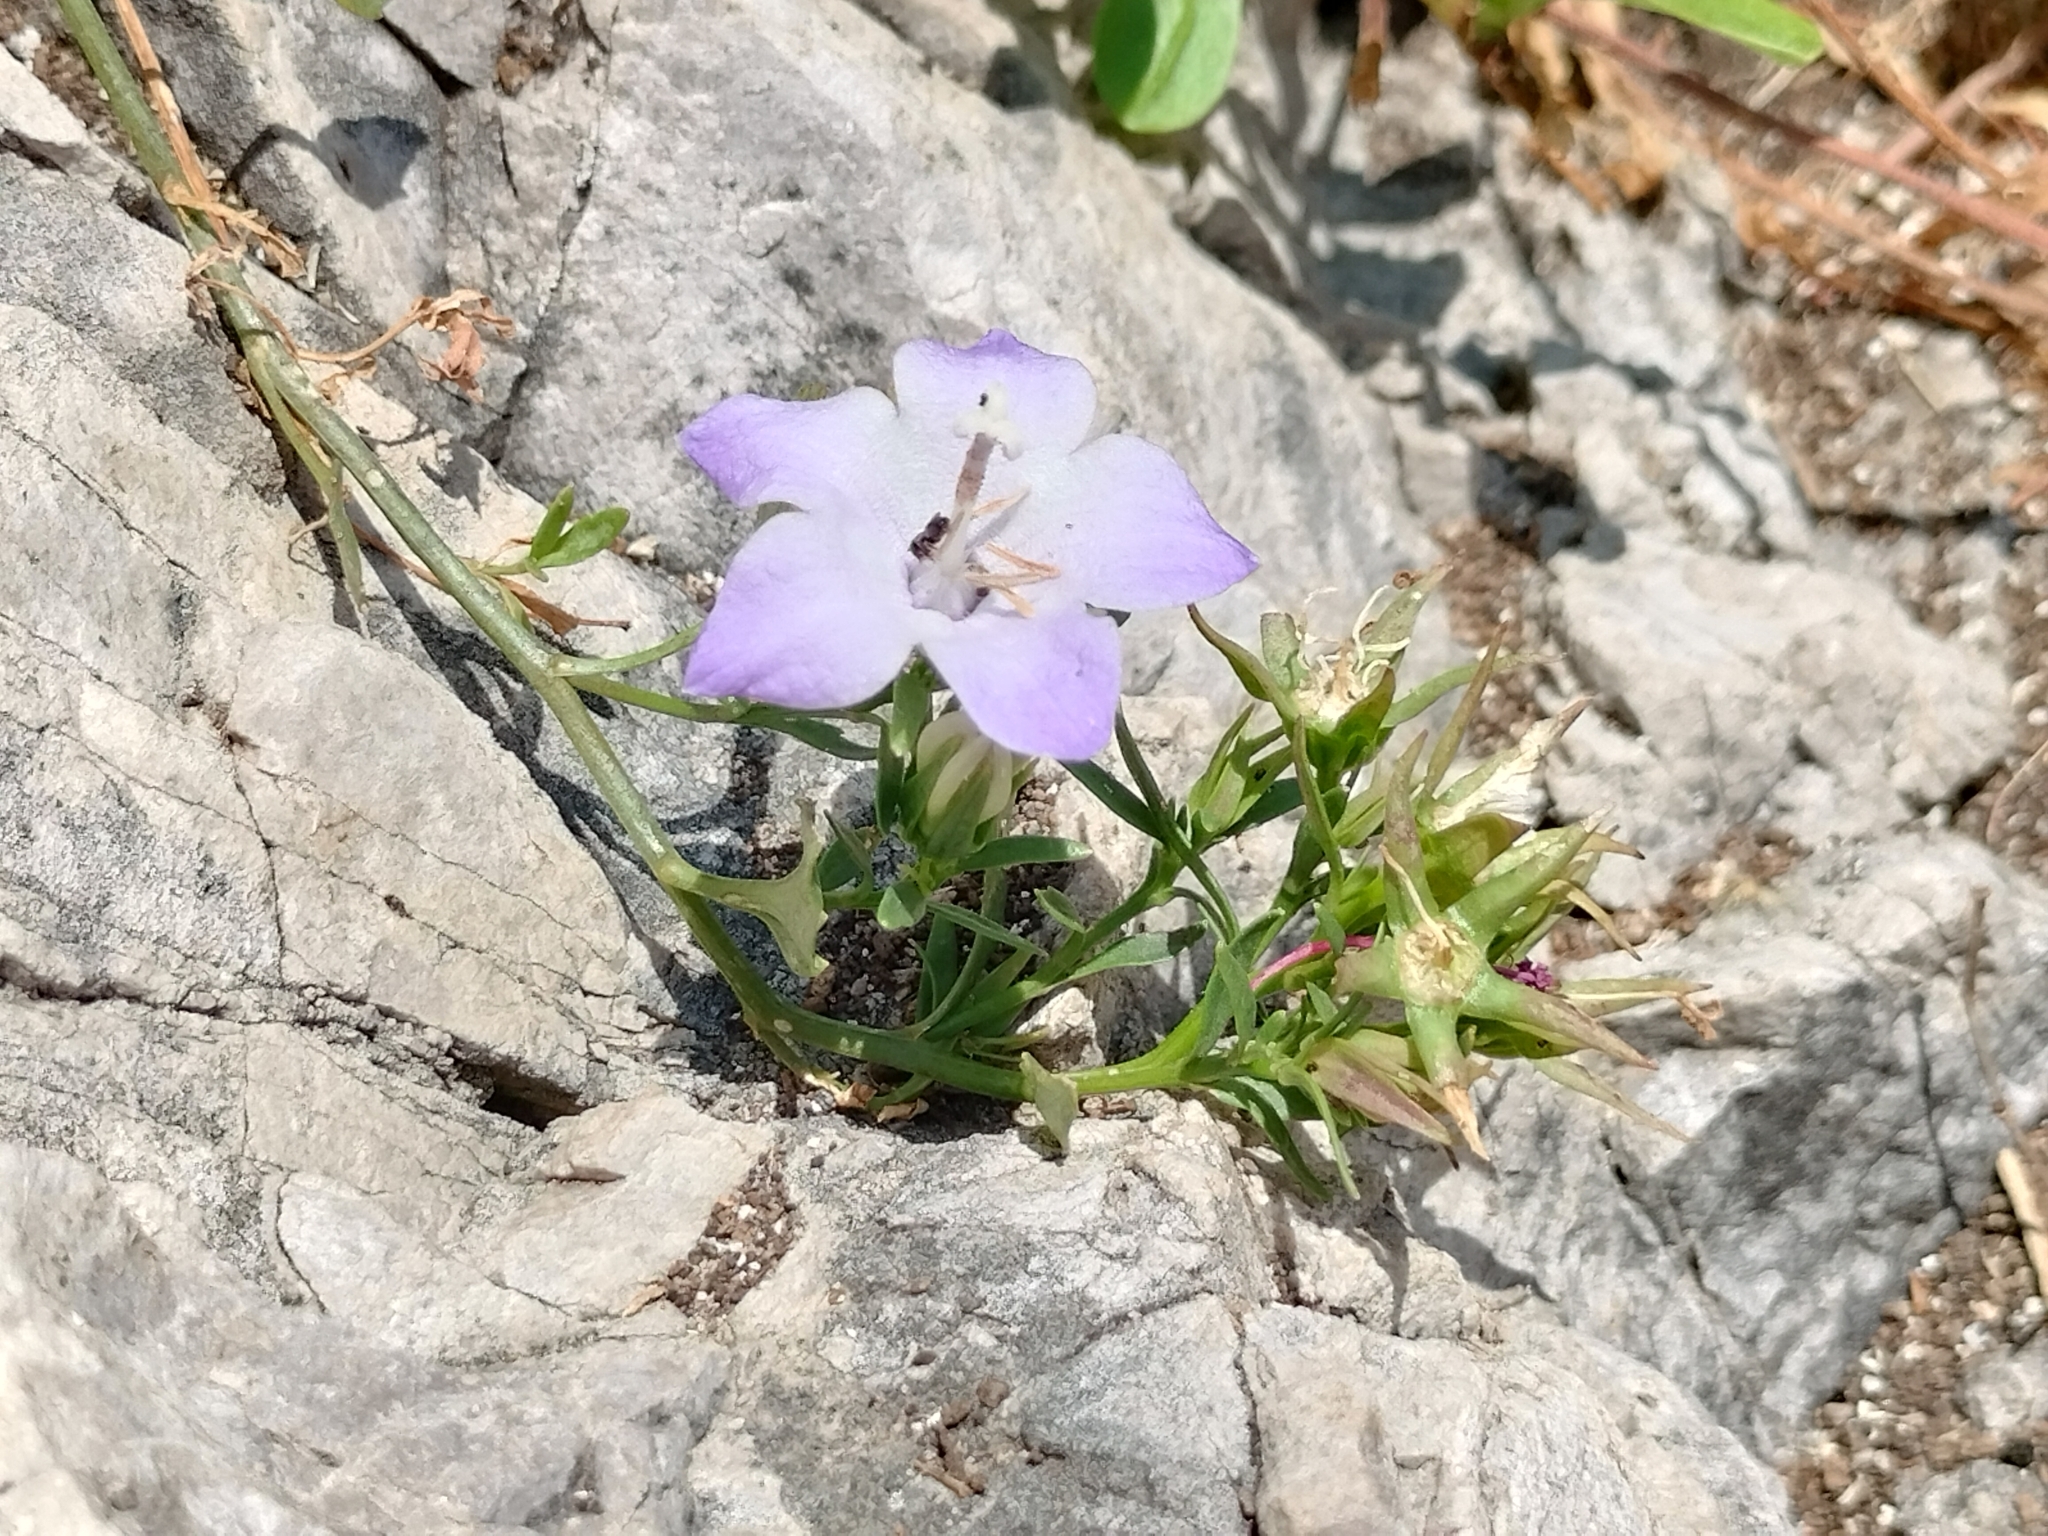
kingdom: Plantae
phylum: Tracheophyta
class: Magnoliopsida
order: Asterales
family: Campanulaceae
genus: Campanula
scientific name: Campanula fragilis
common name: Italian bellflower
